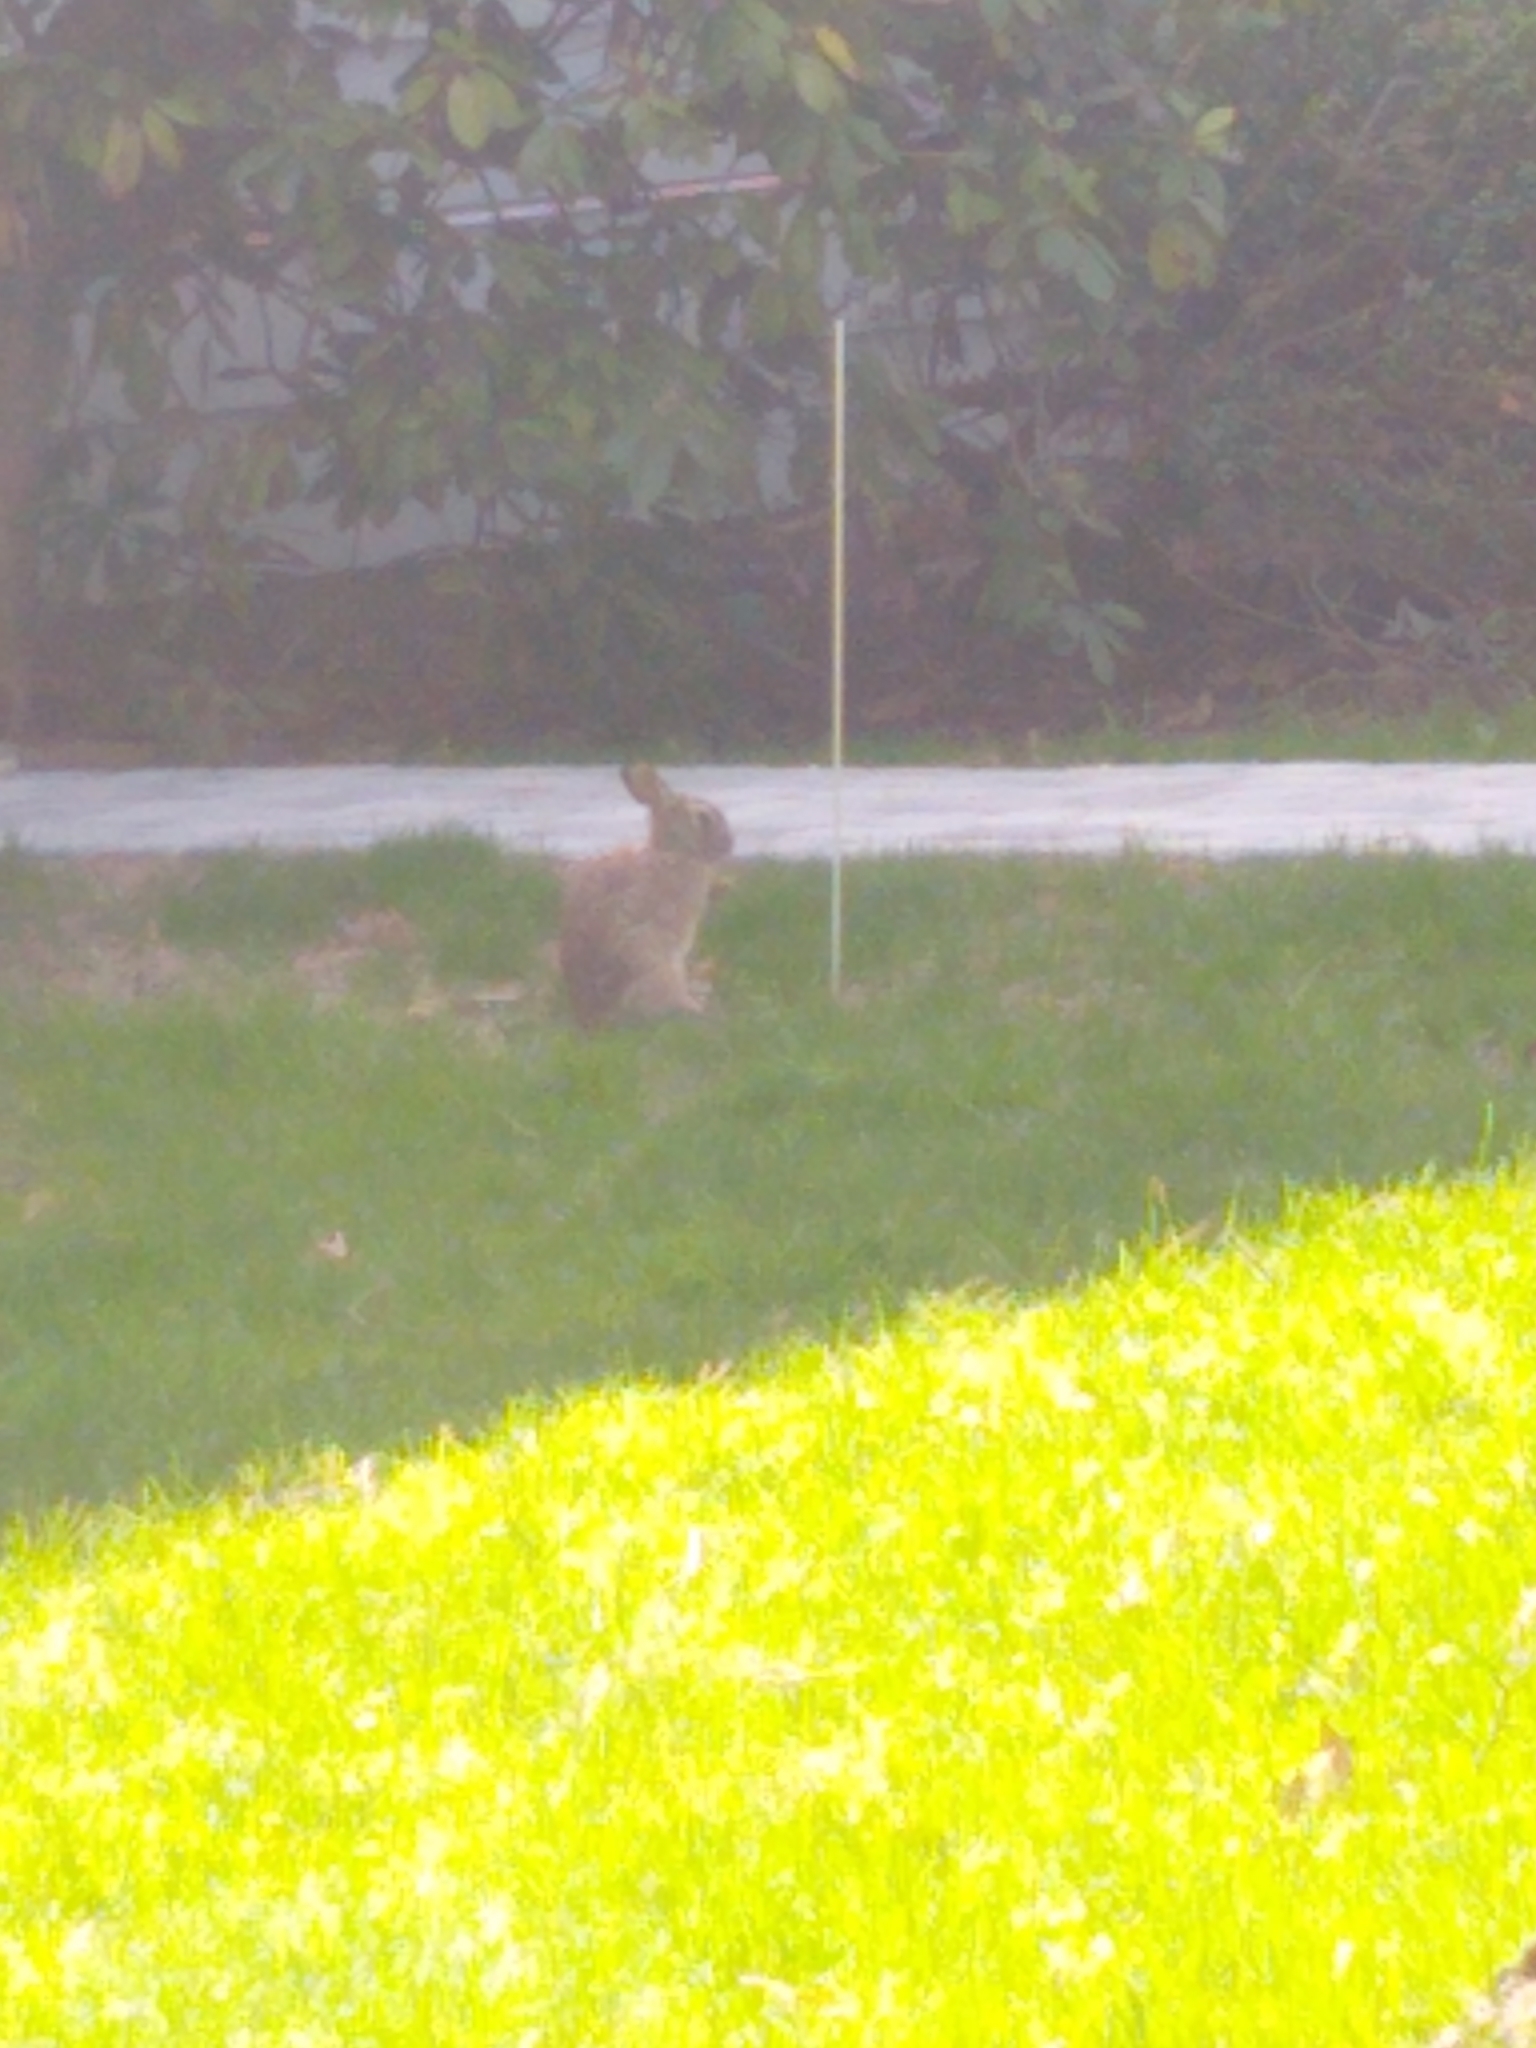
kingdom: Animalia
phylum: Chordata
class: Mammalia
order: Lagomorpha
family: Leporidae
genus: Sylvilagus
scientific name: Sylvilagus floridanus
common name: Eastern cottontail
